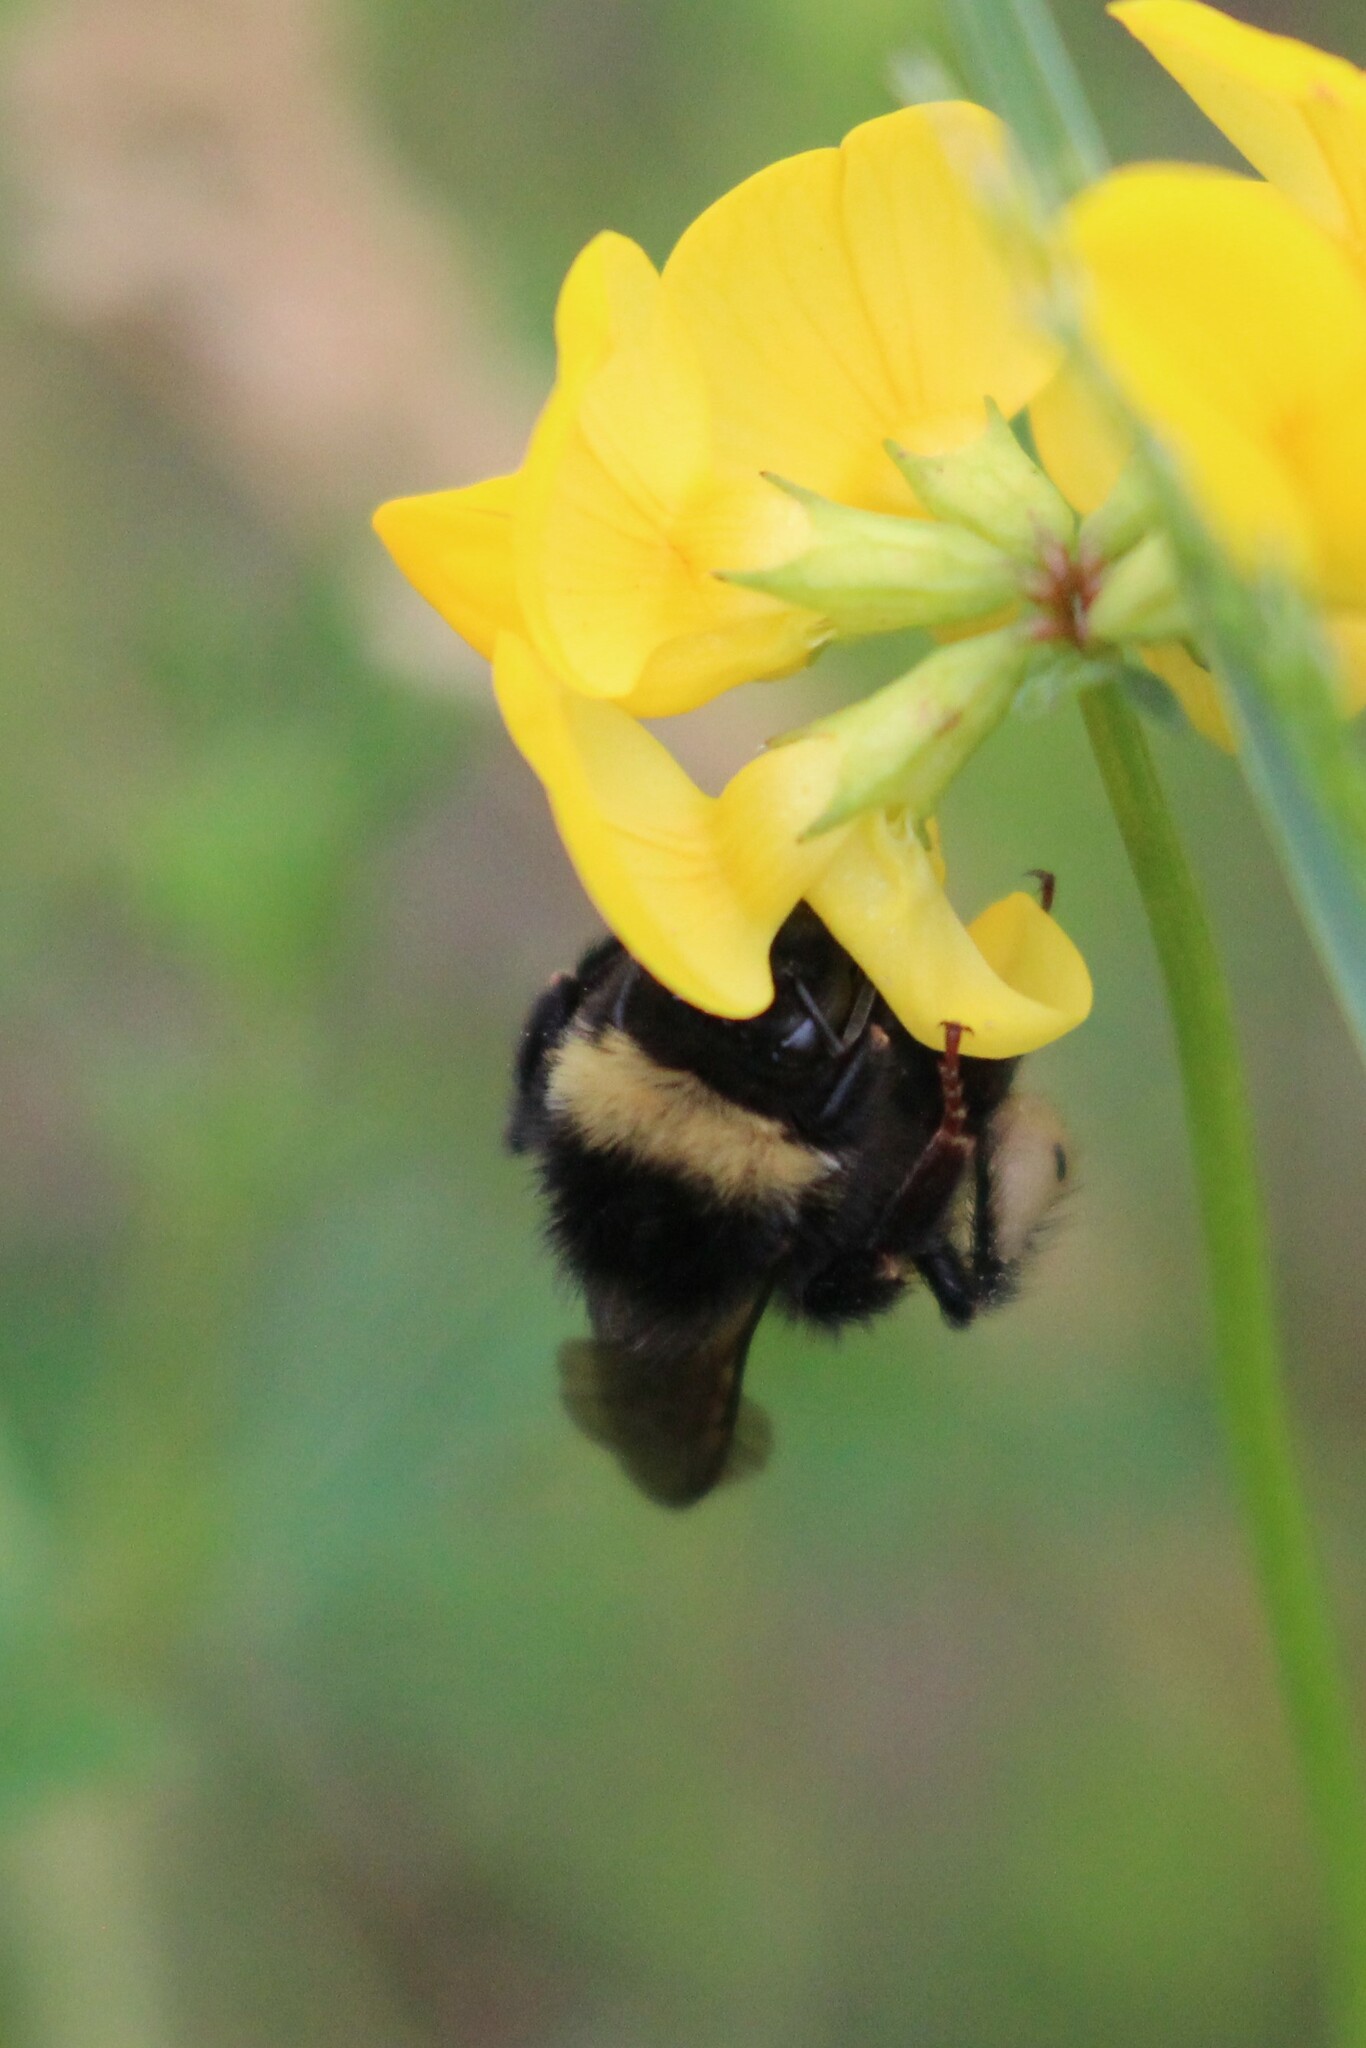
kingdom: Animalia
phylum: Arthropoda
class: Insecta
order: Hymenoptera
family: Apidae
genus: Bombus
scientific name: Bombus terricola
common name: Yellow-banded bumble bee
